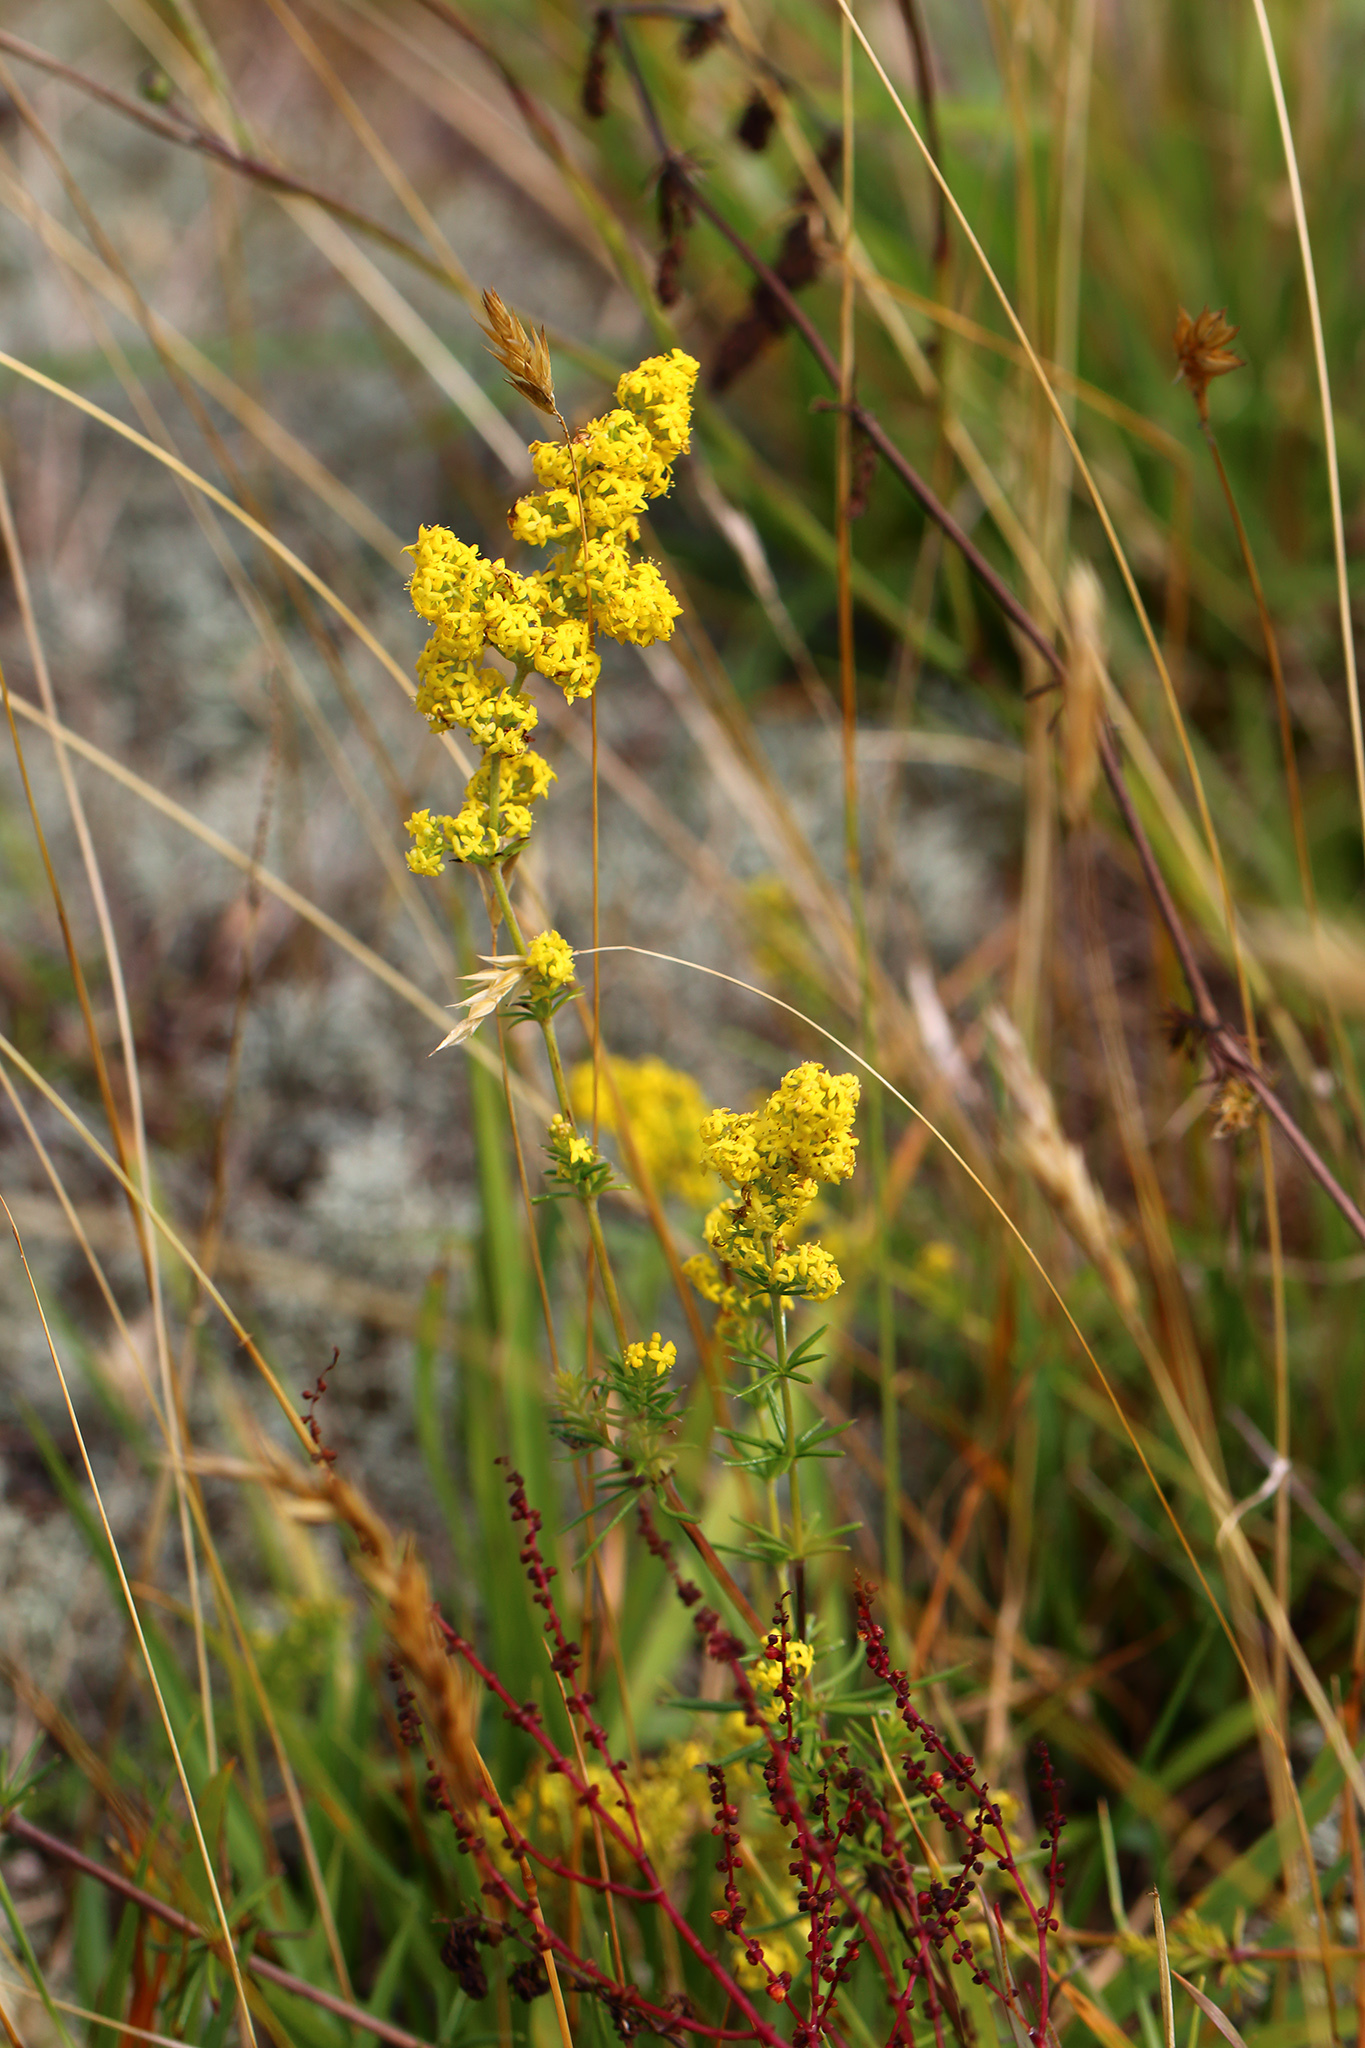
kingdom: Plantae
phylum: Tracheophyta
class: Magnoliopsida
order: Gentianales
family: Rubiaceae
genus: Galium
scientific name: Galium verum
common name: Lady's bedstraw
